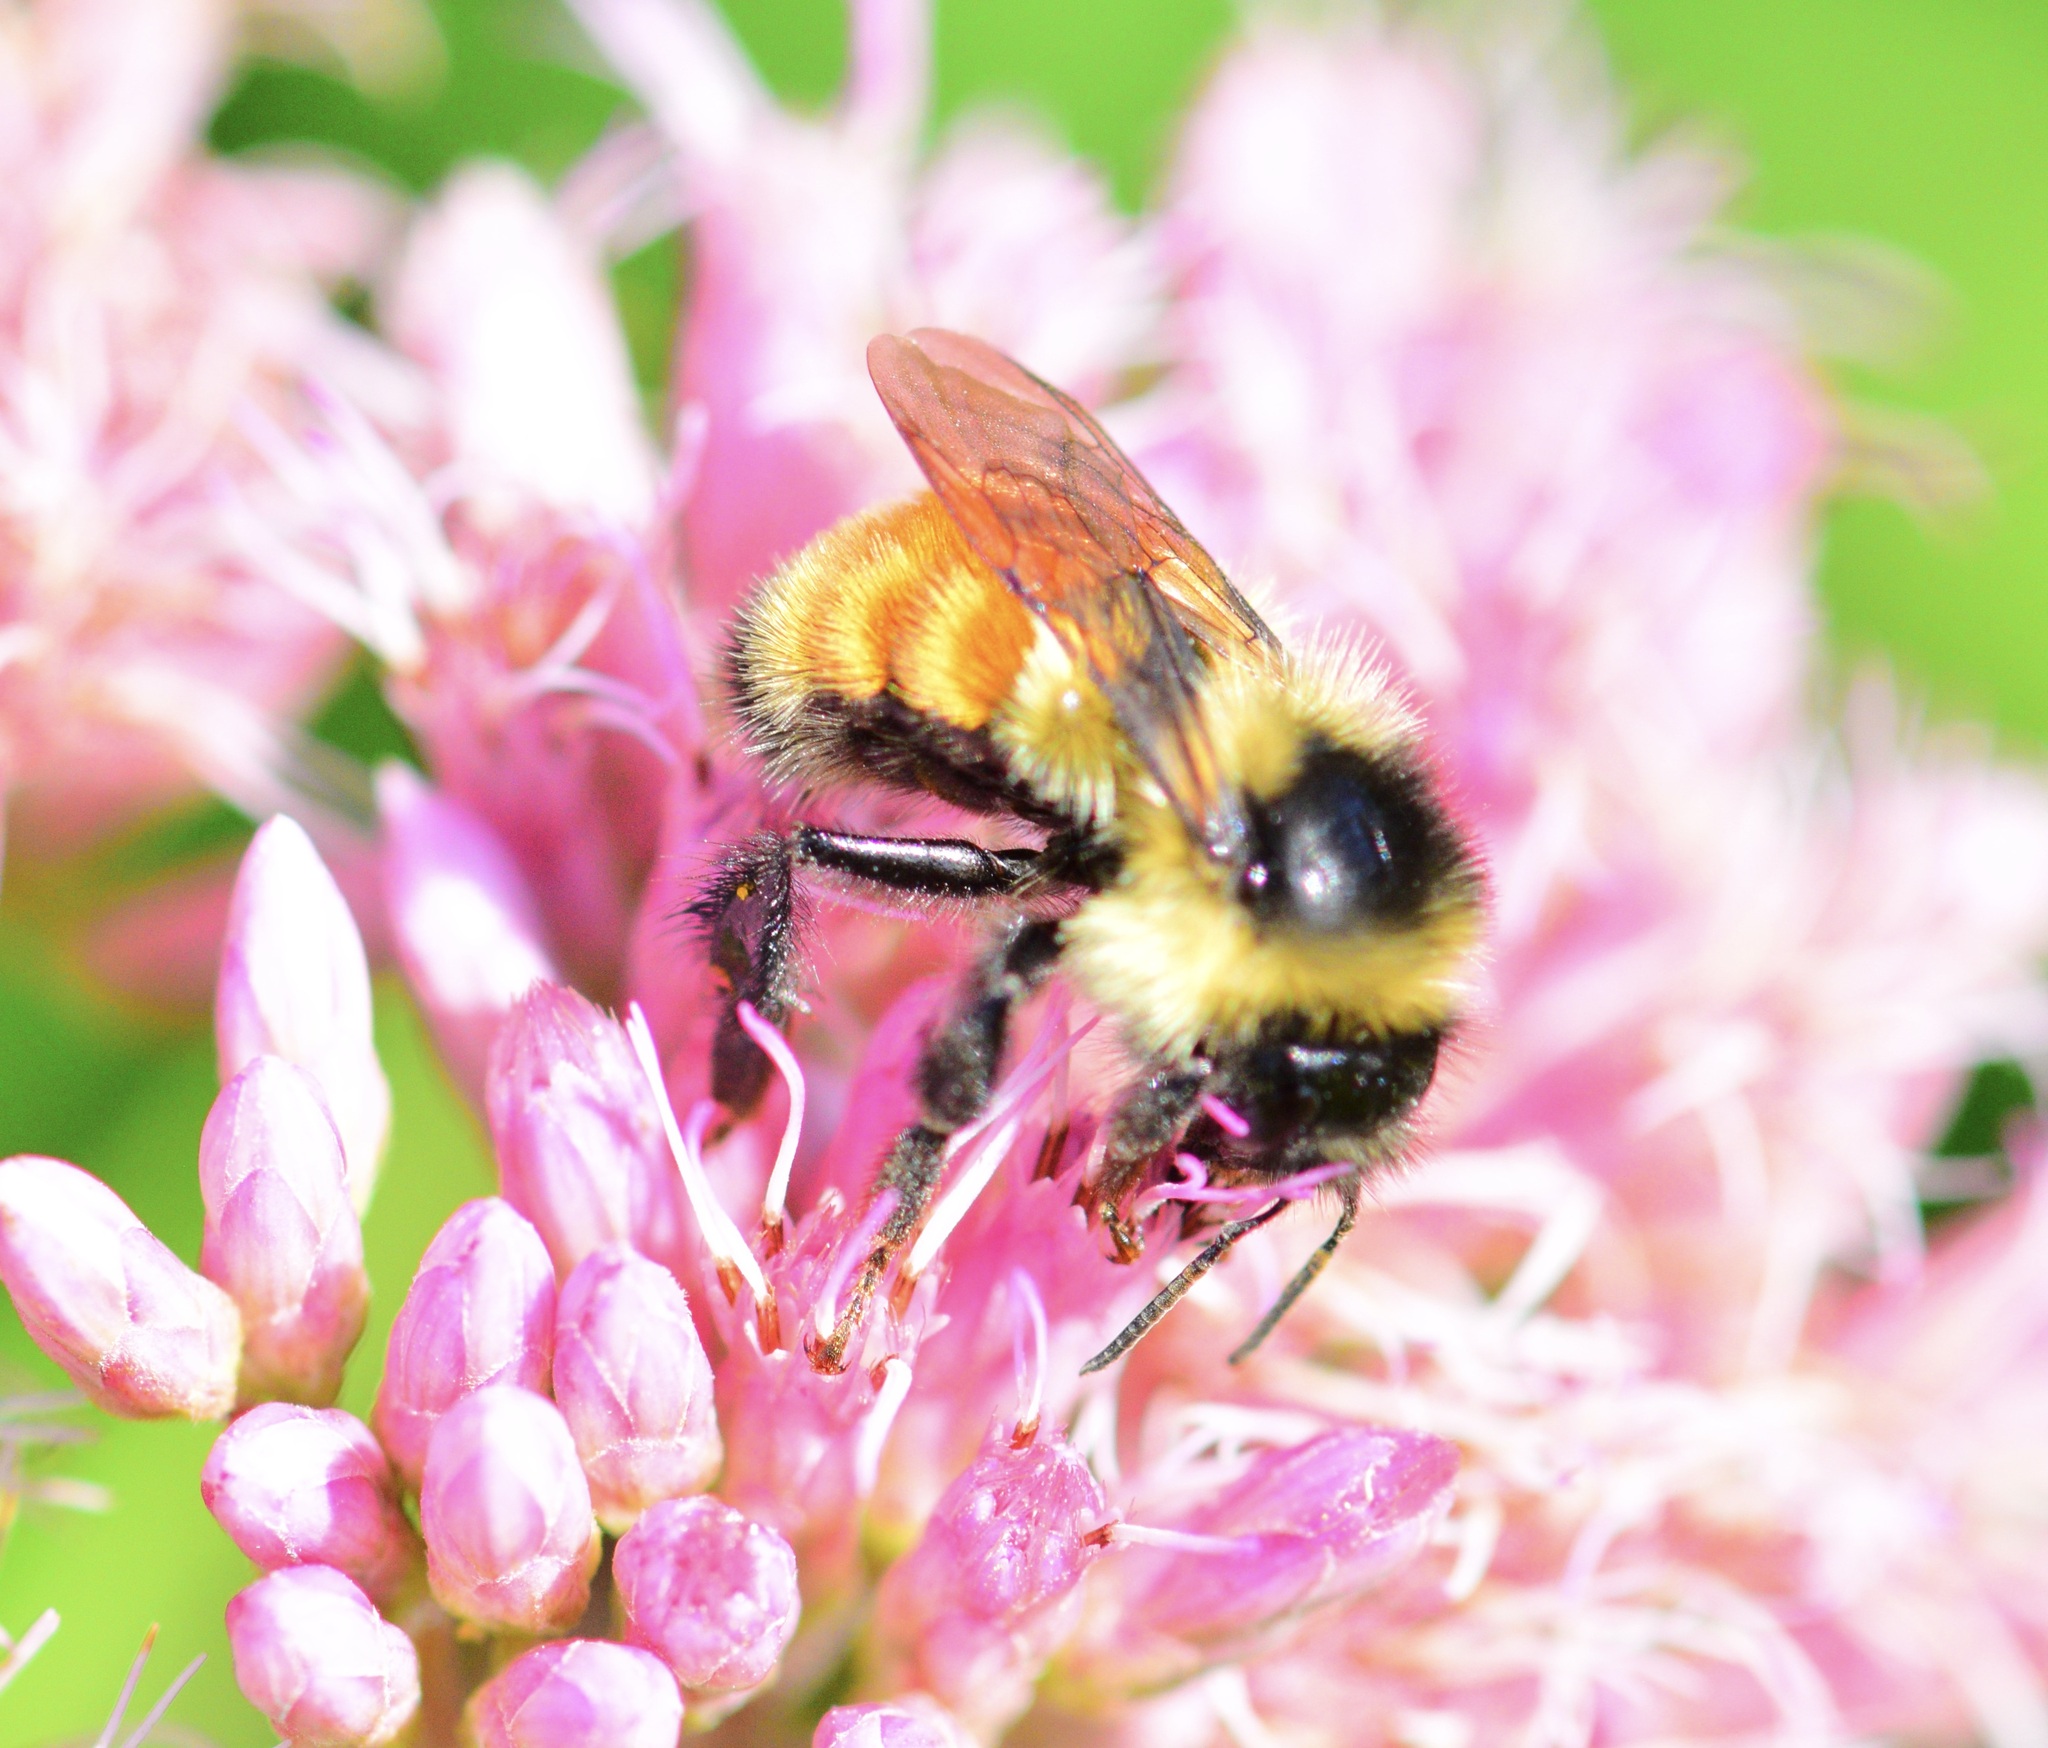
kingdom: Animalia
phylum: Arthropoda
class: Insecta
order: Hymenoptera
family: Apidae
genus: Bombus
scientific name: Bombus ternarius
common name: Tri-colored bumble bee
